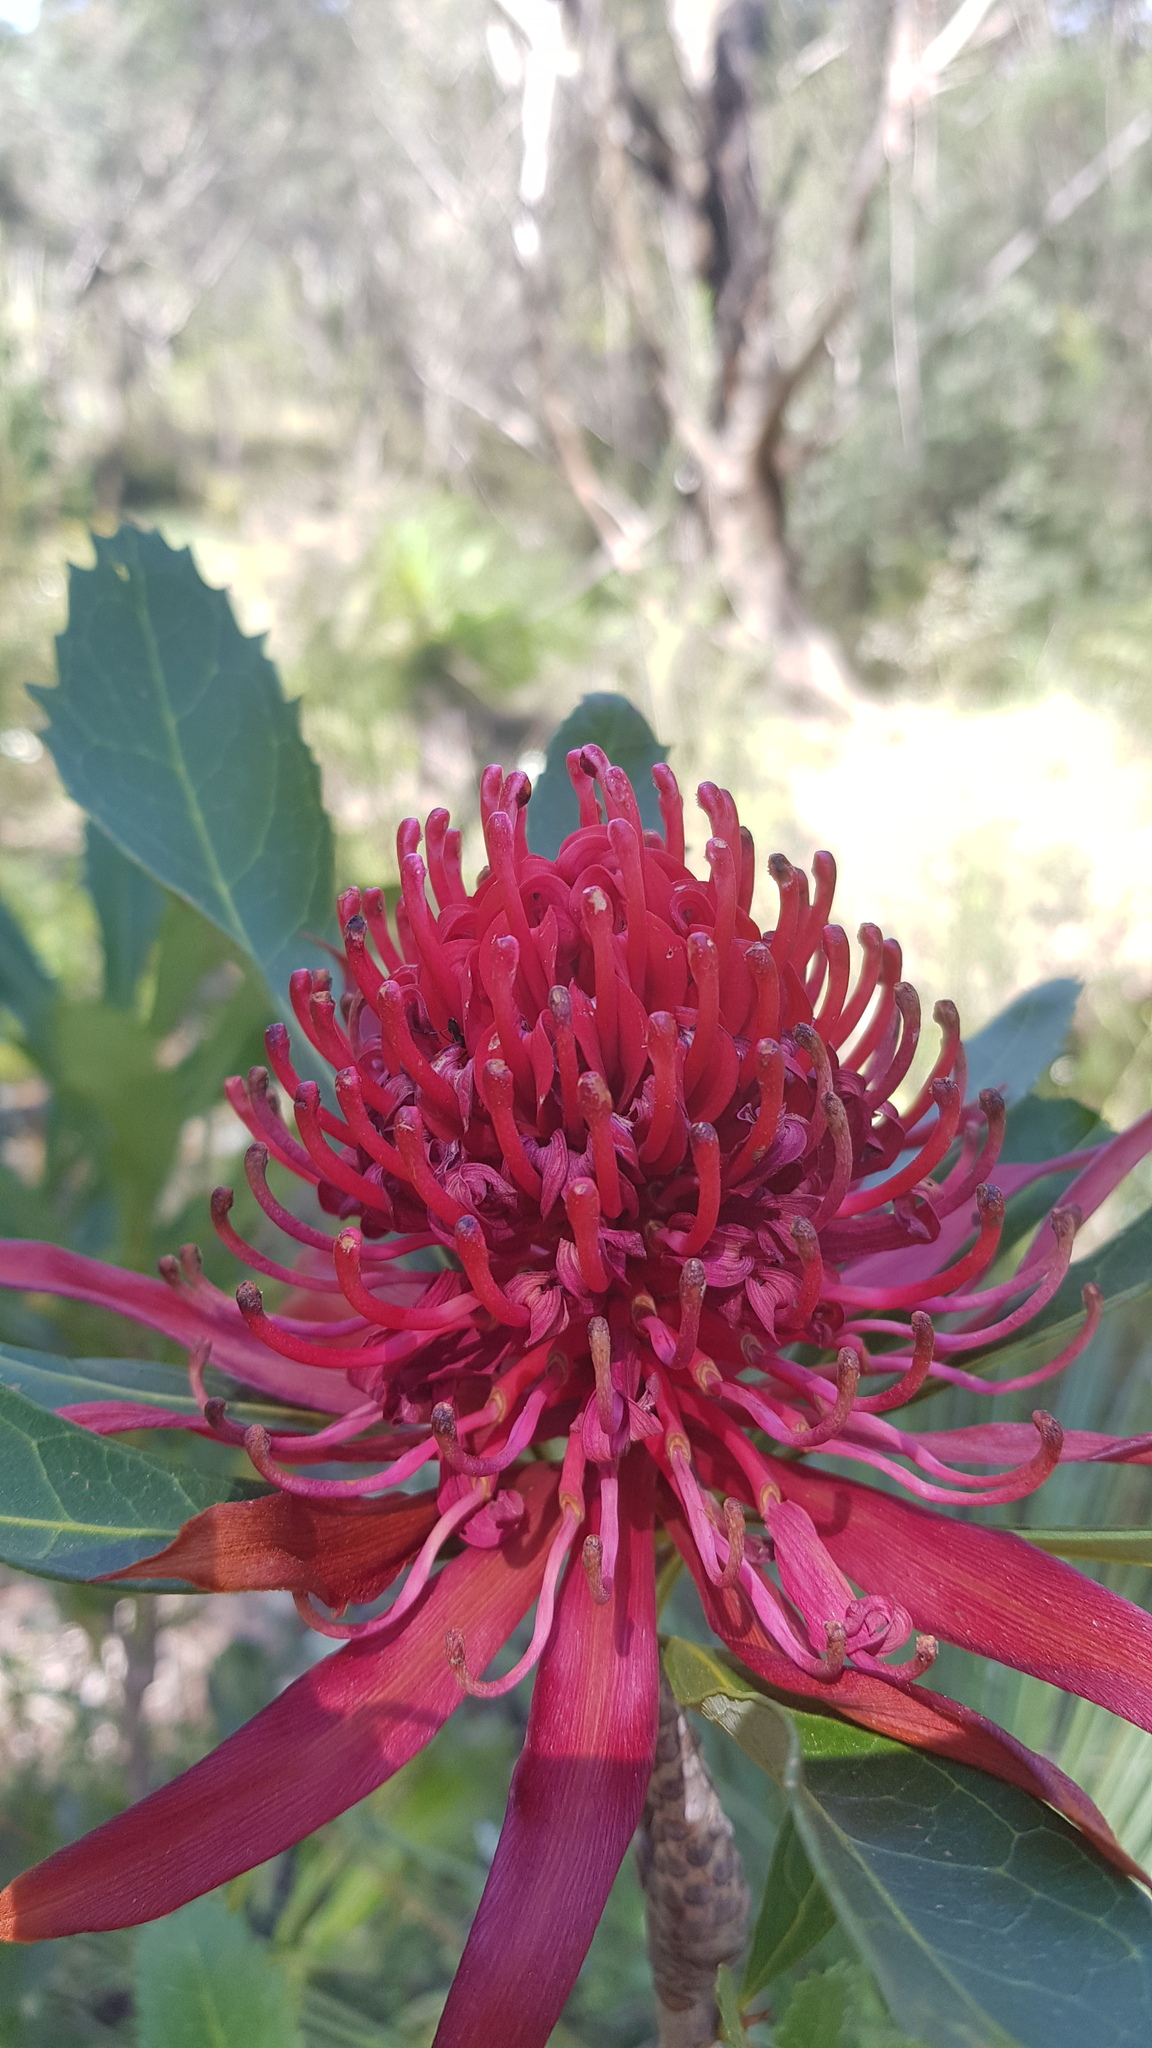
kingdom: Plantae
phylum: Tracheophyta
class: Magnoliopsida
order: Proteales
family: Proteaceae
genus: Telopea
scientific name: Telopea speciosissima
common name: New south wales waratah
